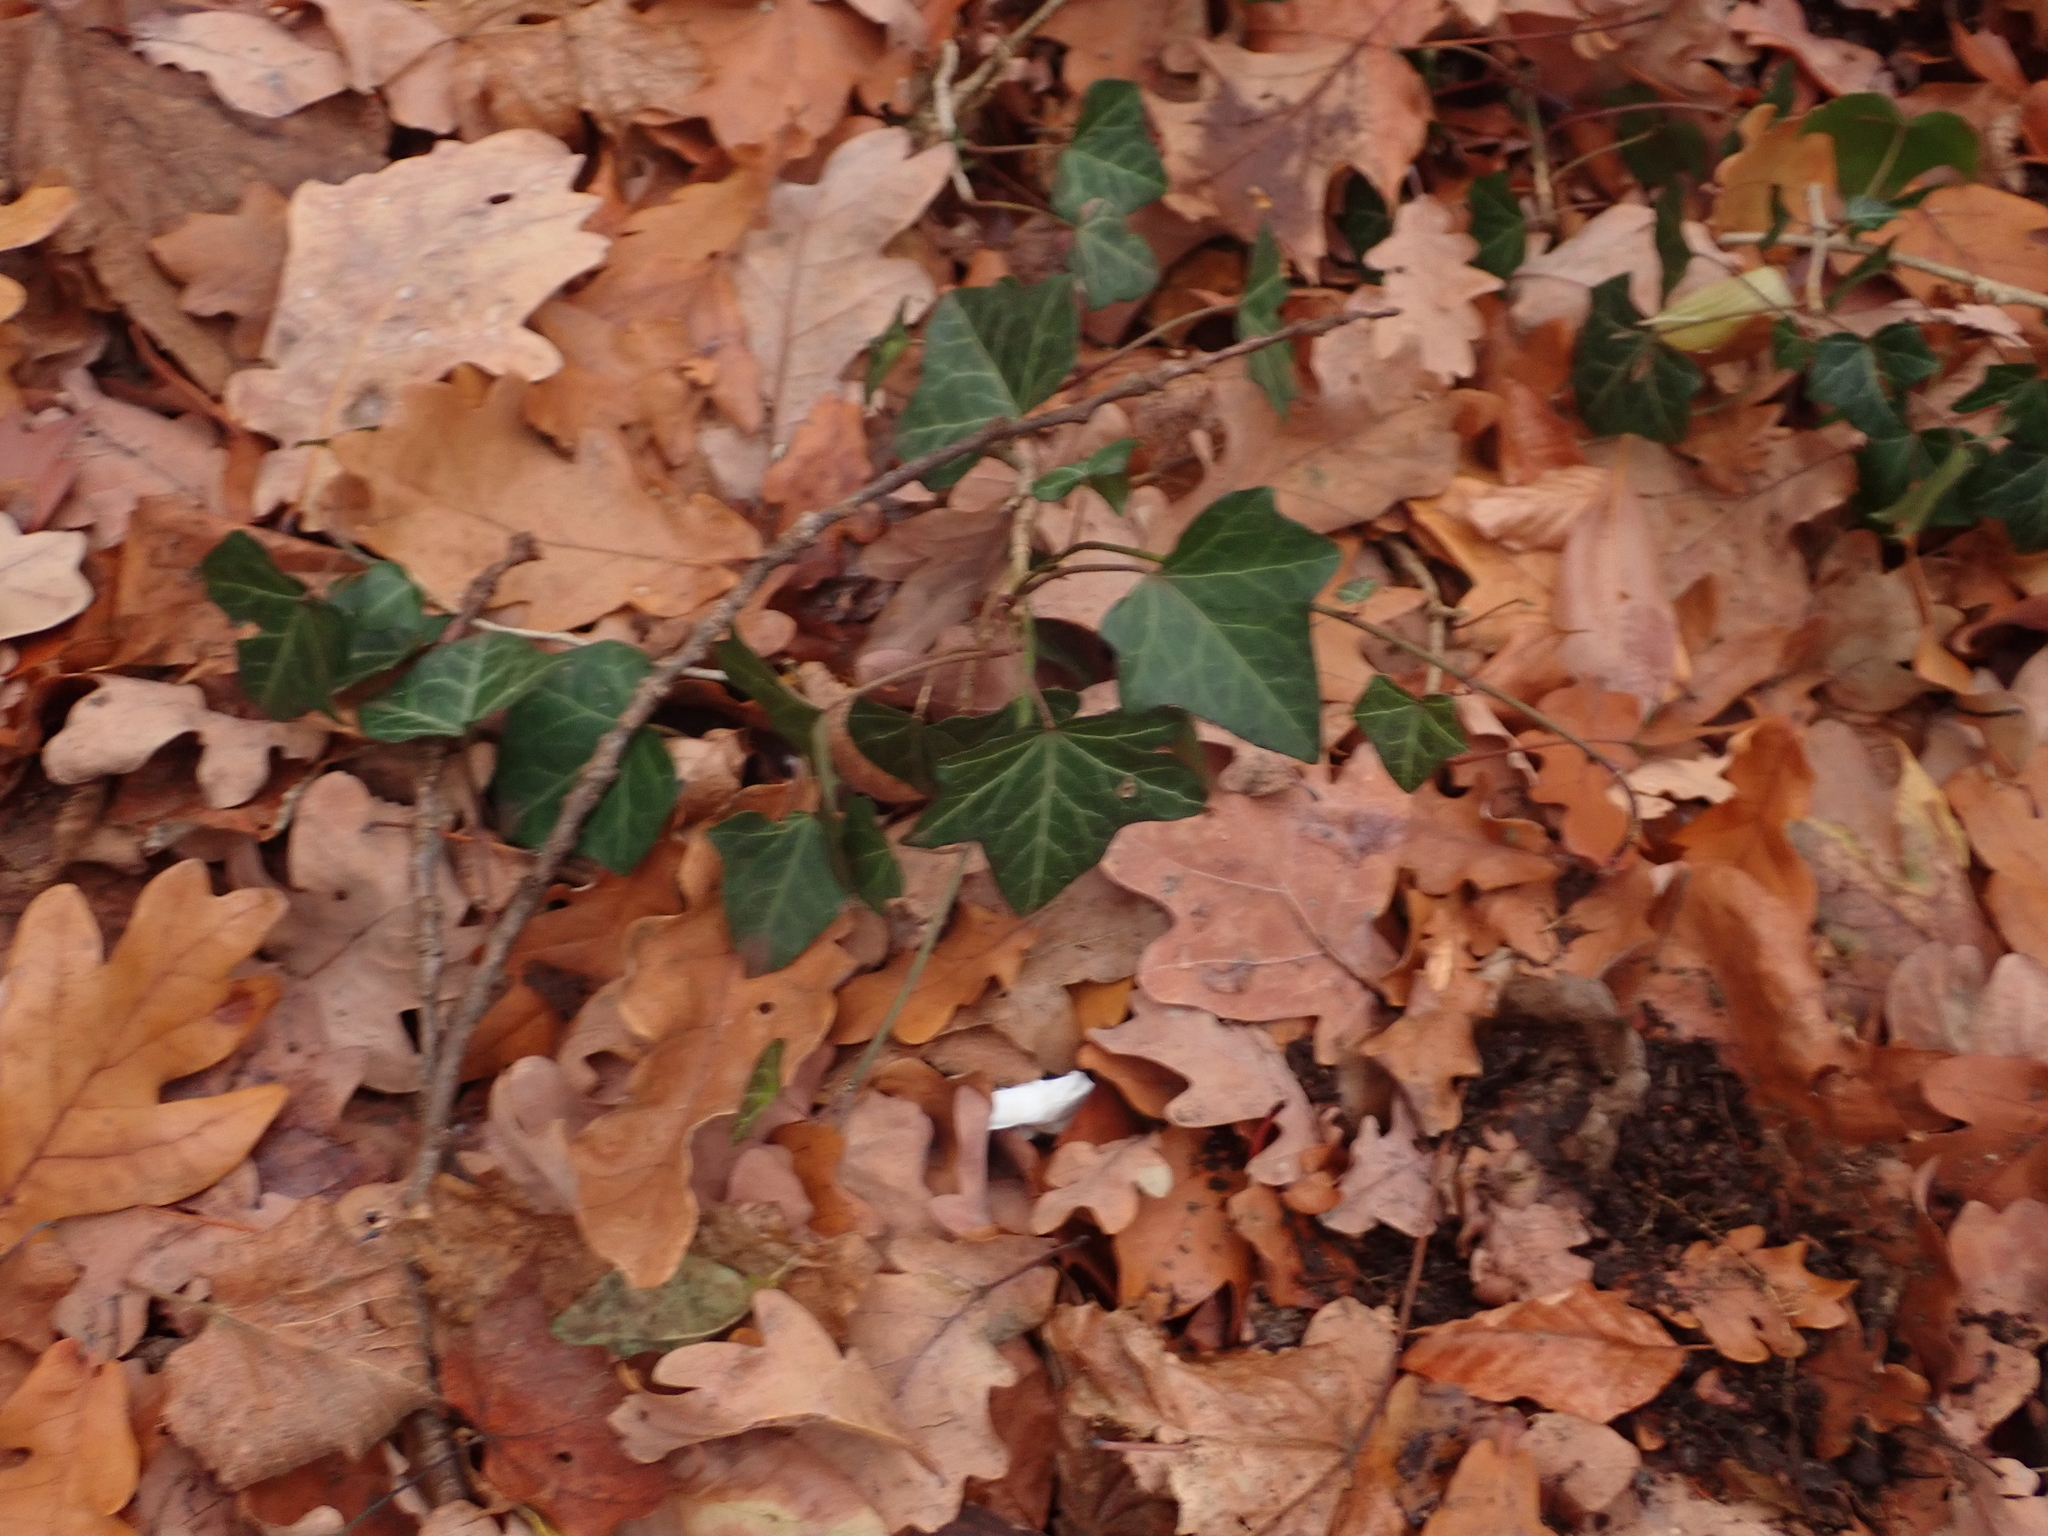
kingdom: Plantae
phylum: Tracheophyta
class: Magnoliopsida
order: Apiales
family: Araliaceae
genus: Hedera
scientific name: Hedera helix
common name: Ivy
